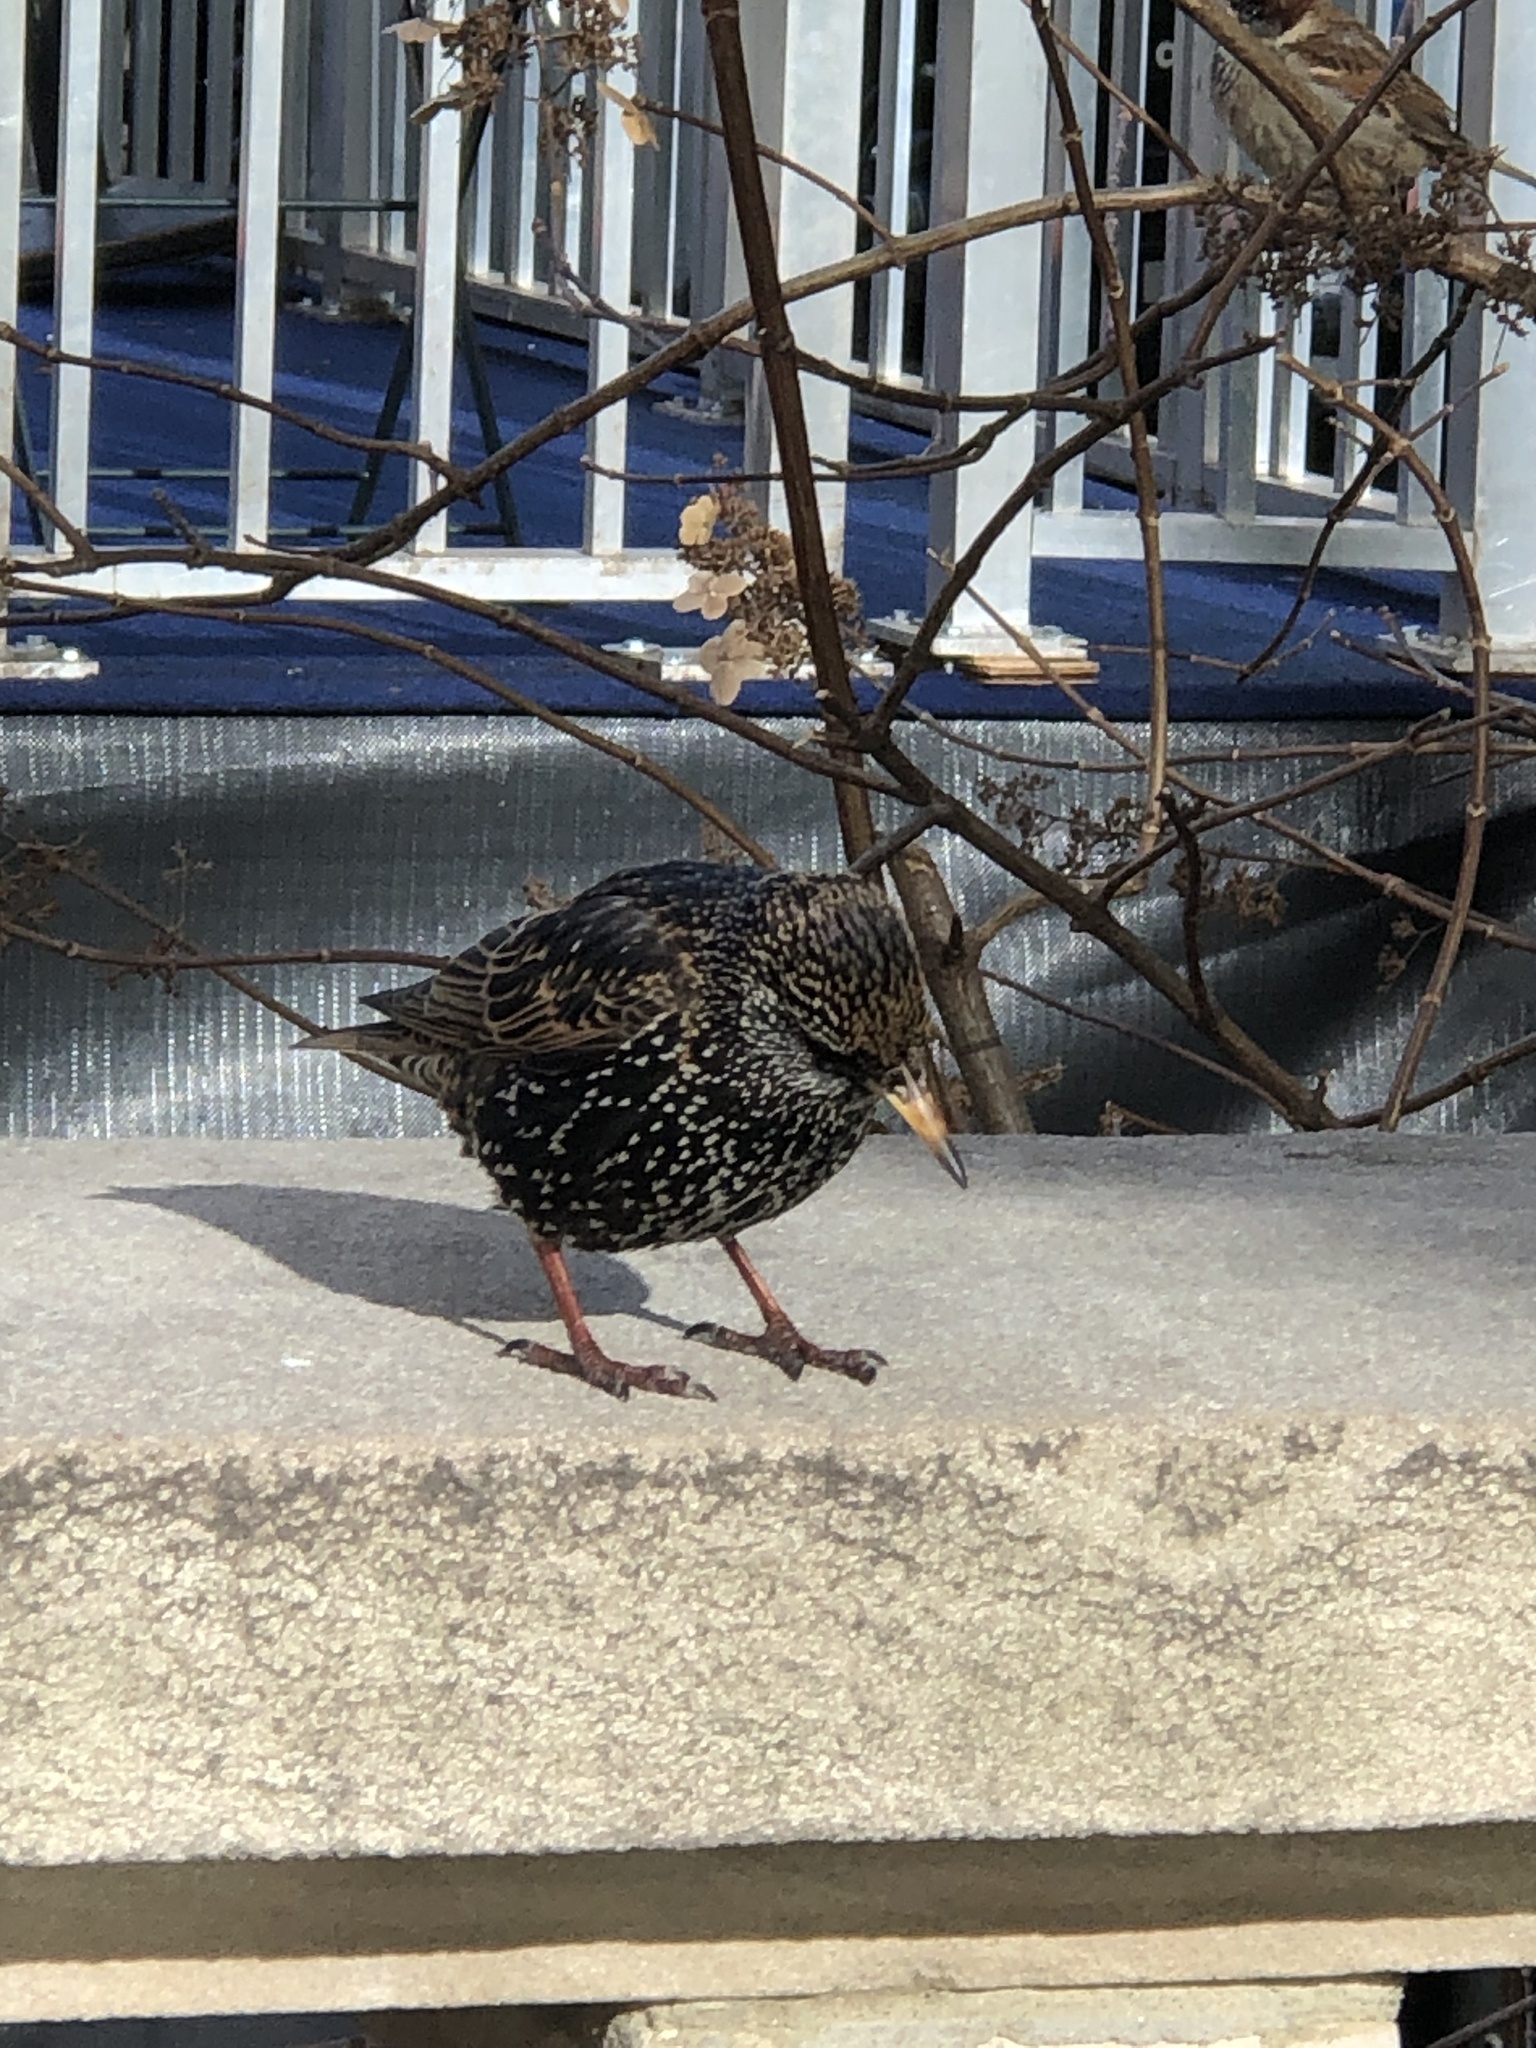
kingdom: Animalia
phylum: Chordata
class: Aves
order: Passeriformes
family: Sturnidae
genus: Sturnus
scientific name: Sturnus vulgaris
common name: Common starling
